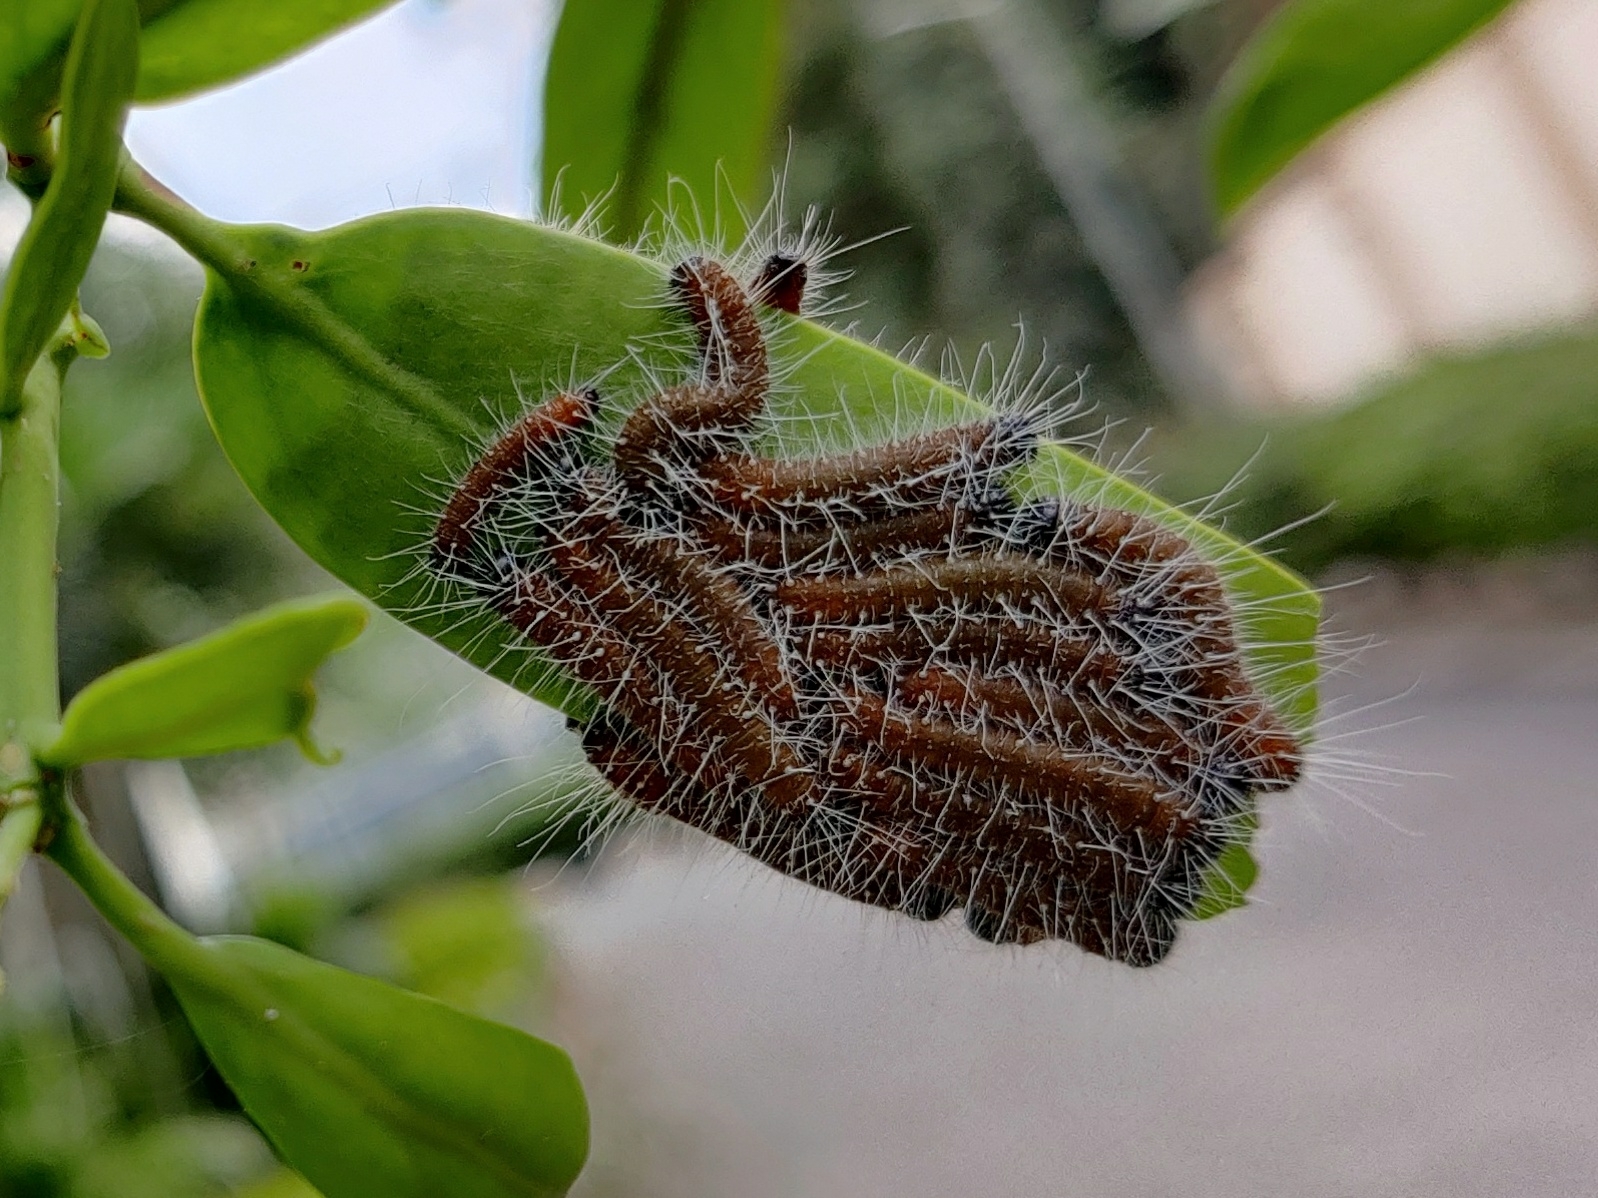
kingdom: Animalia
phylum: Arthropoda
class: Insecta
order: Lepidoptera
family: Pieridae
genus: Delias
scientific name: Delias eucharis
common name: Common jezebel
